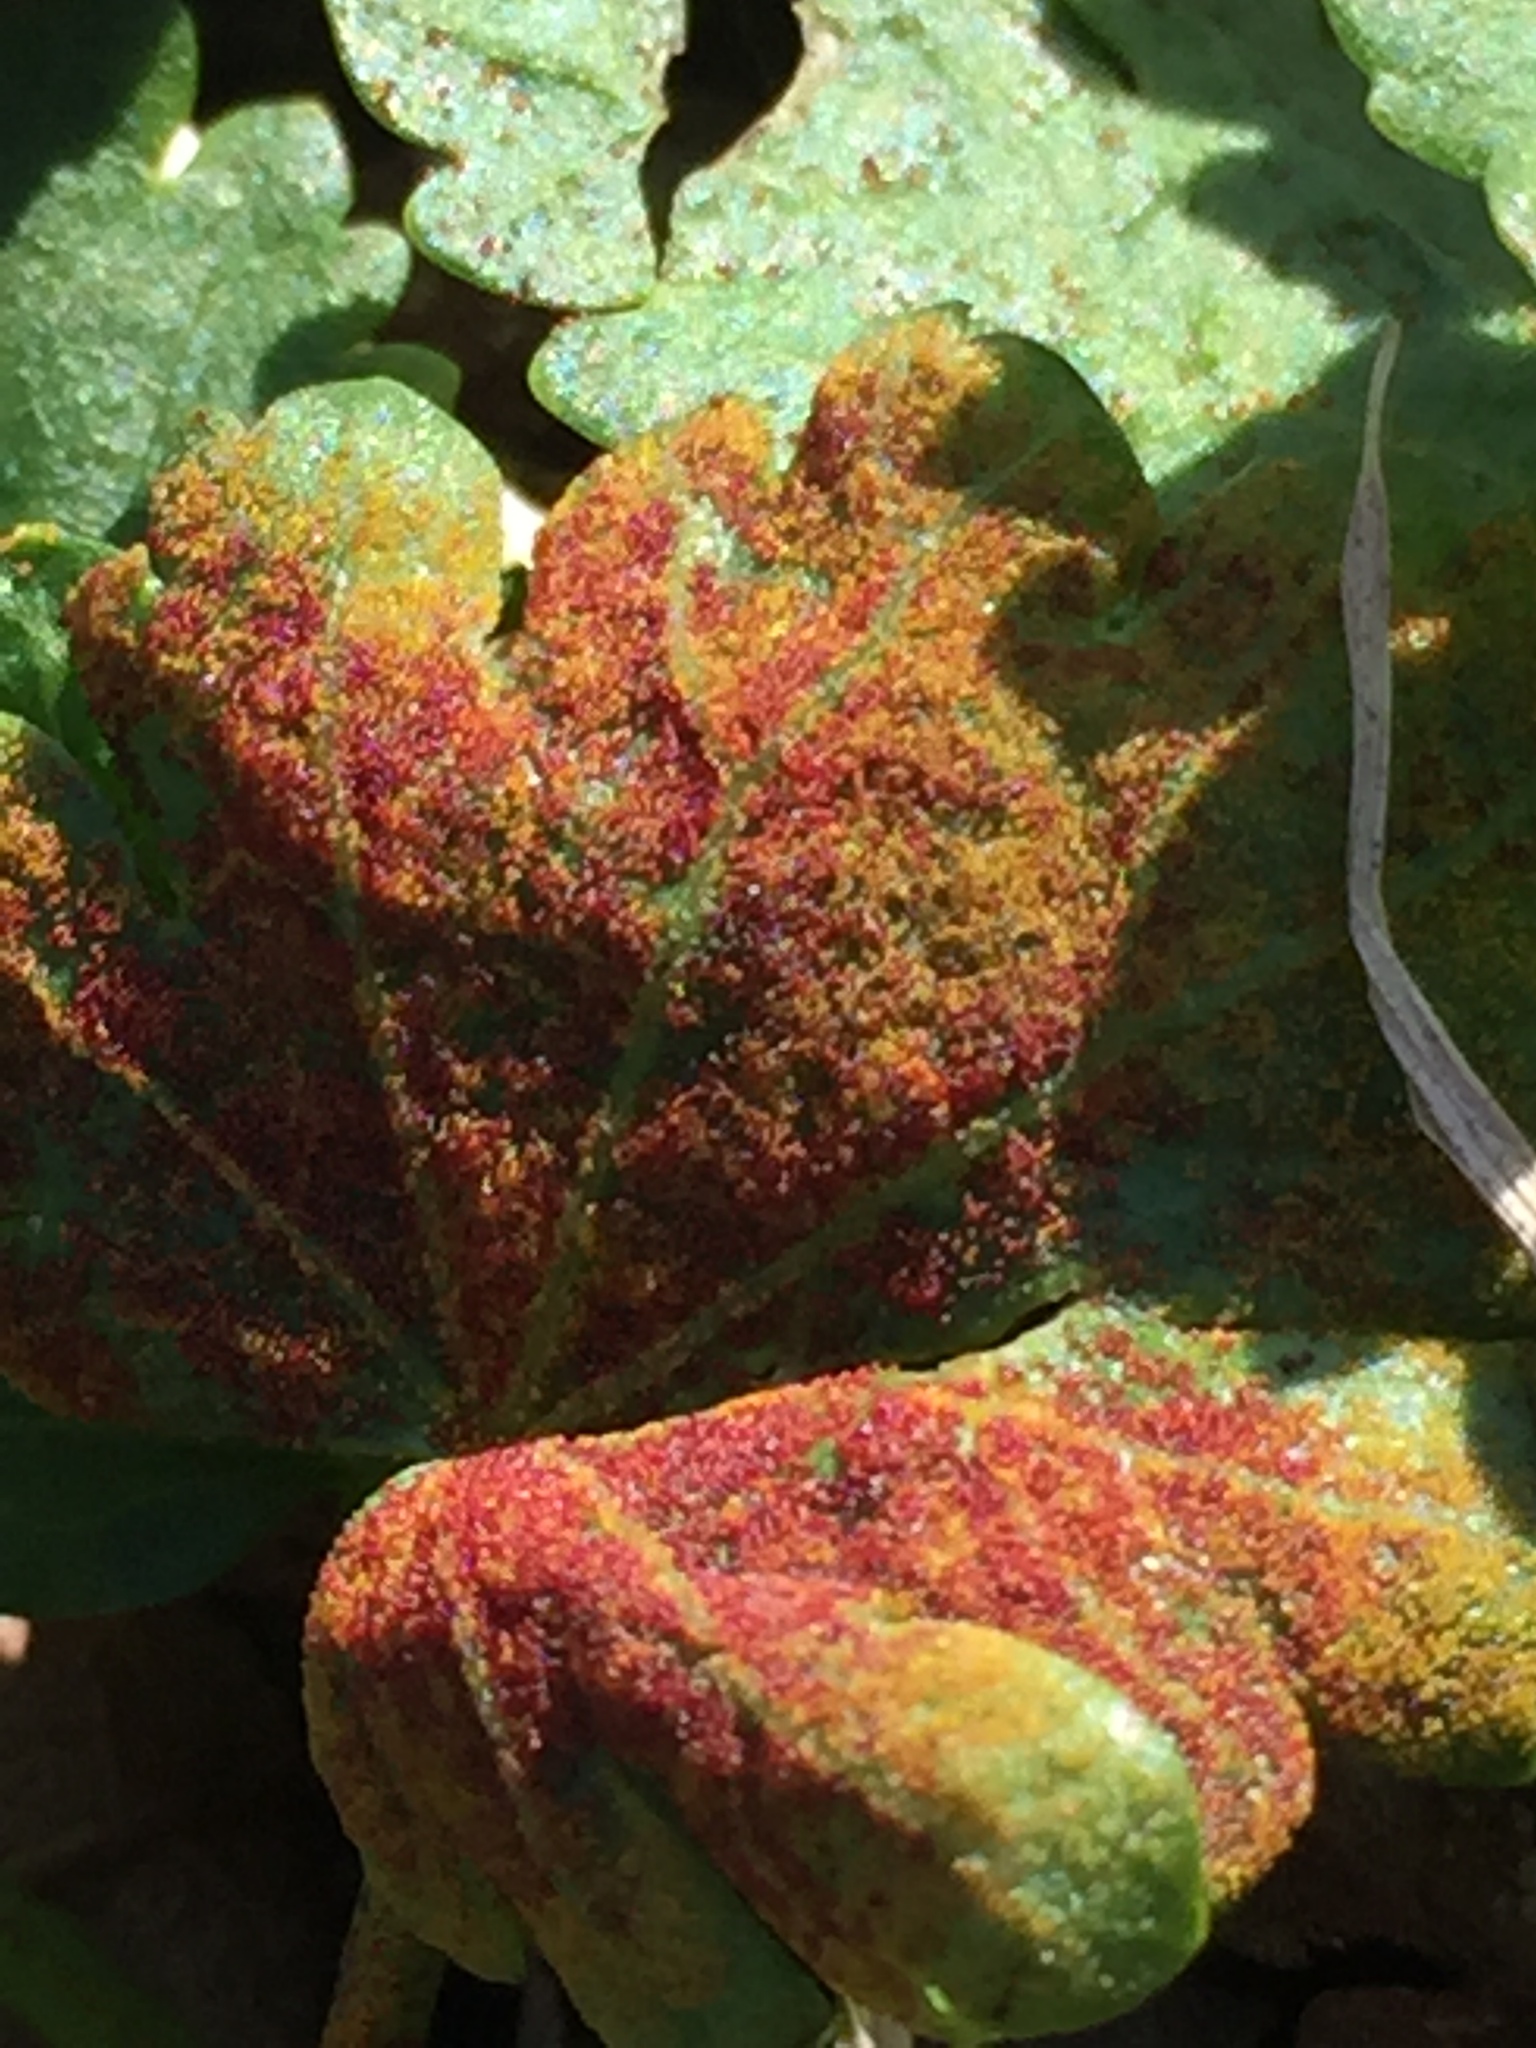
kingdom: Fungi
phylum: Chytridiomycota
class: Chytridiomycetes
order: Chytridiales
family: Synchytriaceae
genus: Synchytrium
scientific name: Synchytrium australe
